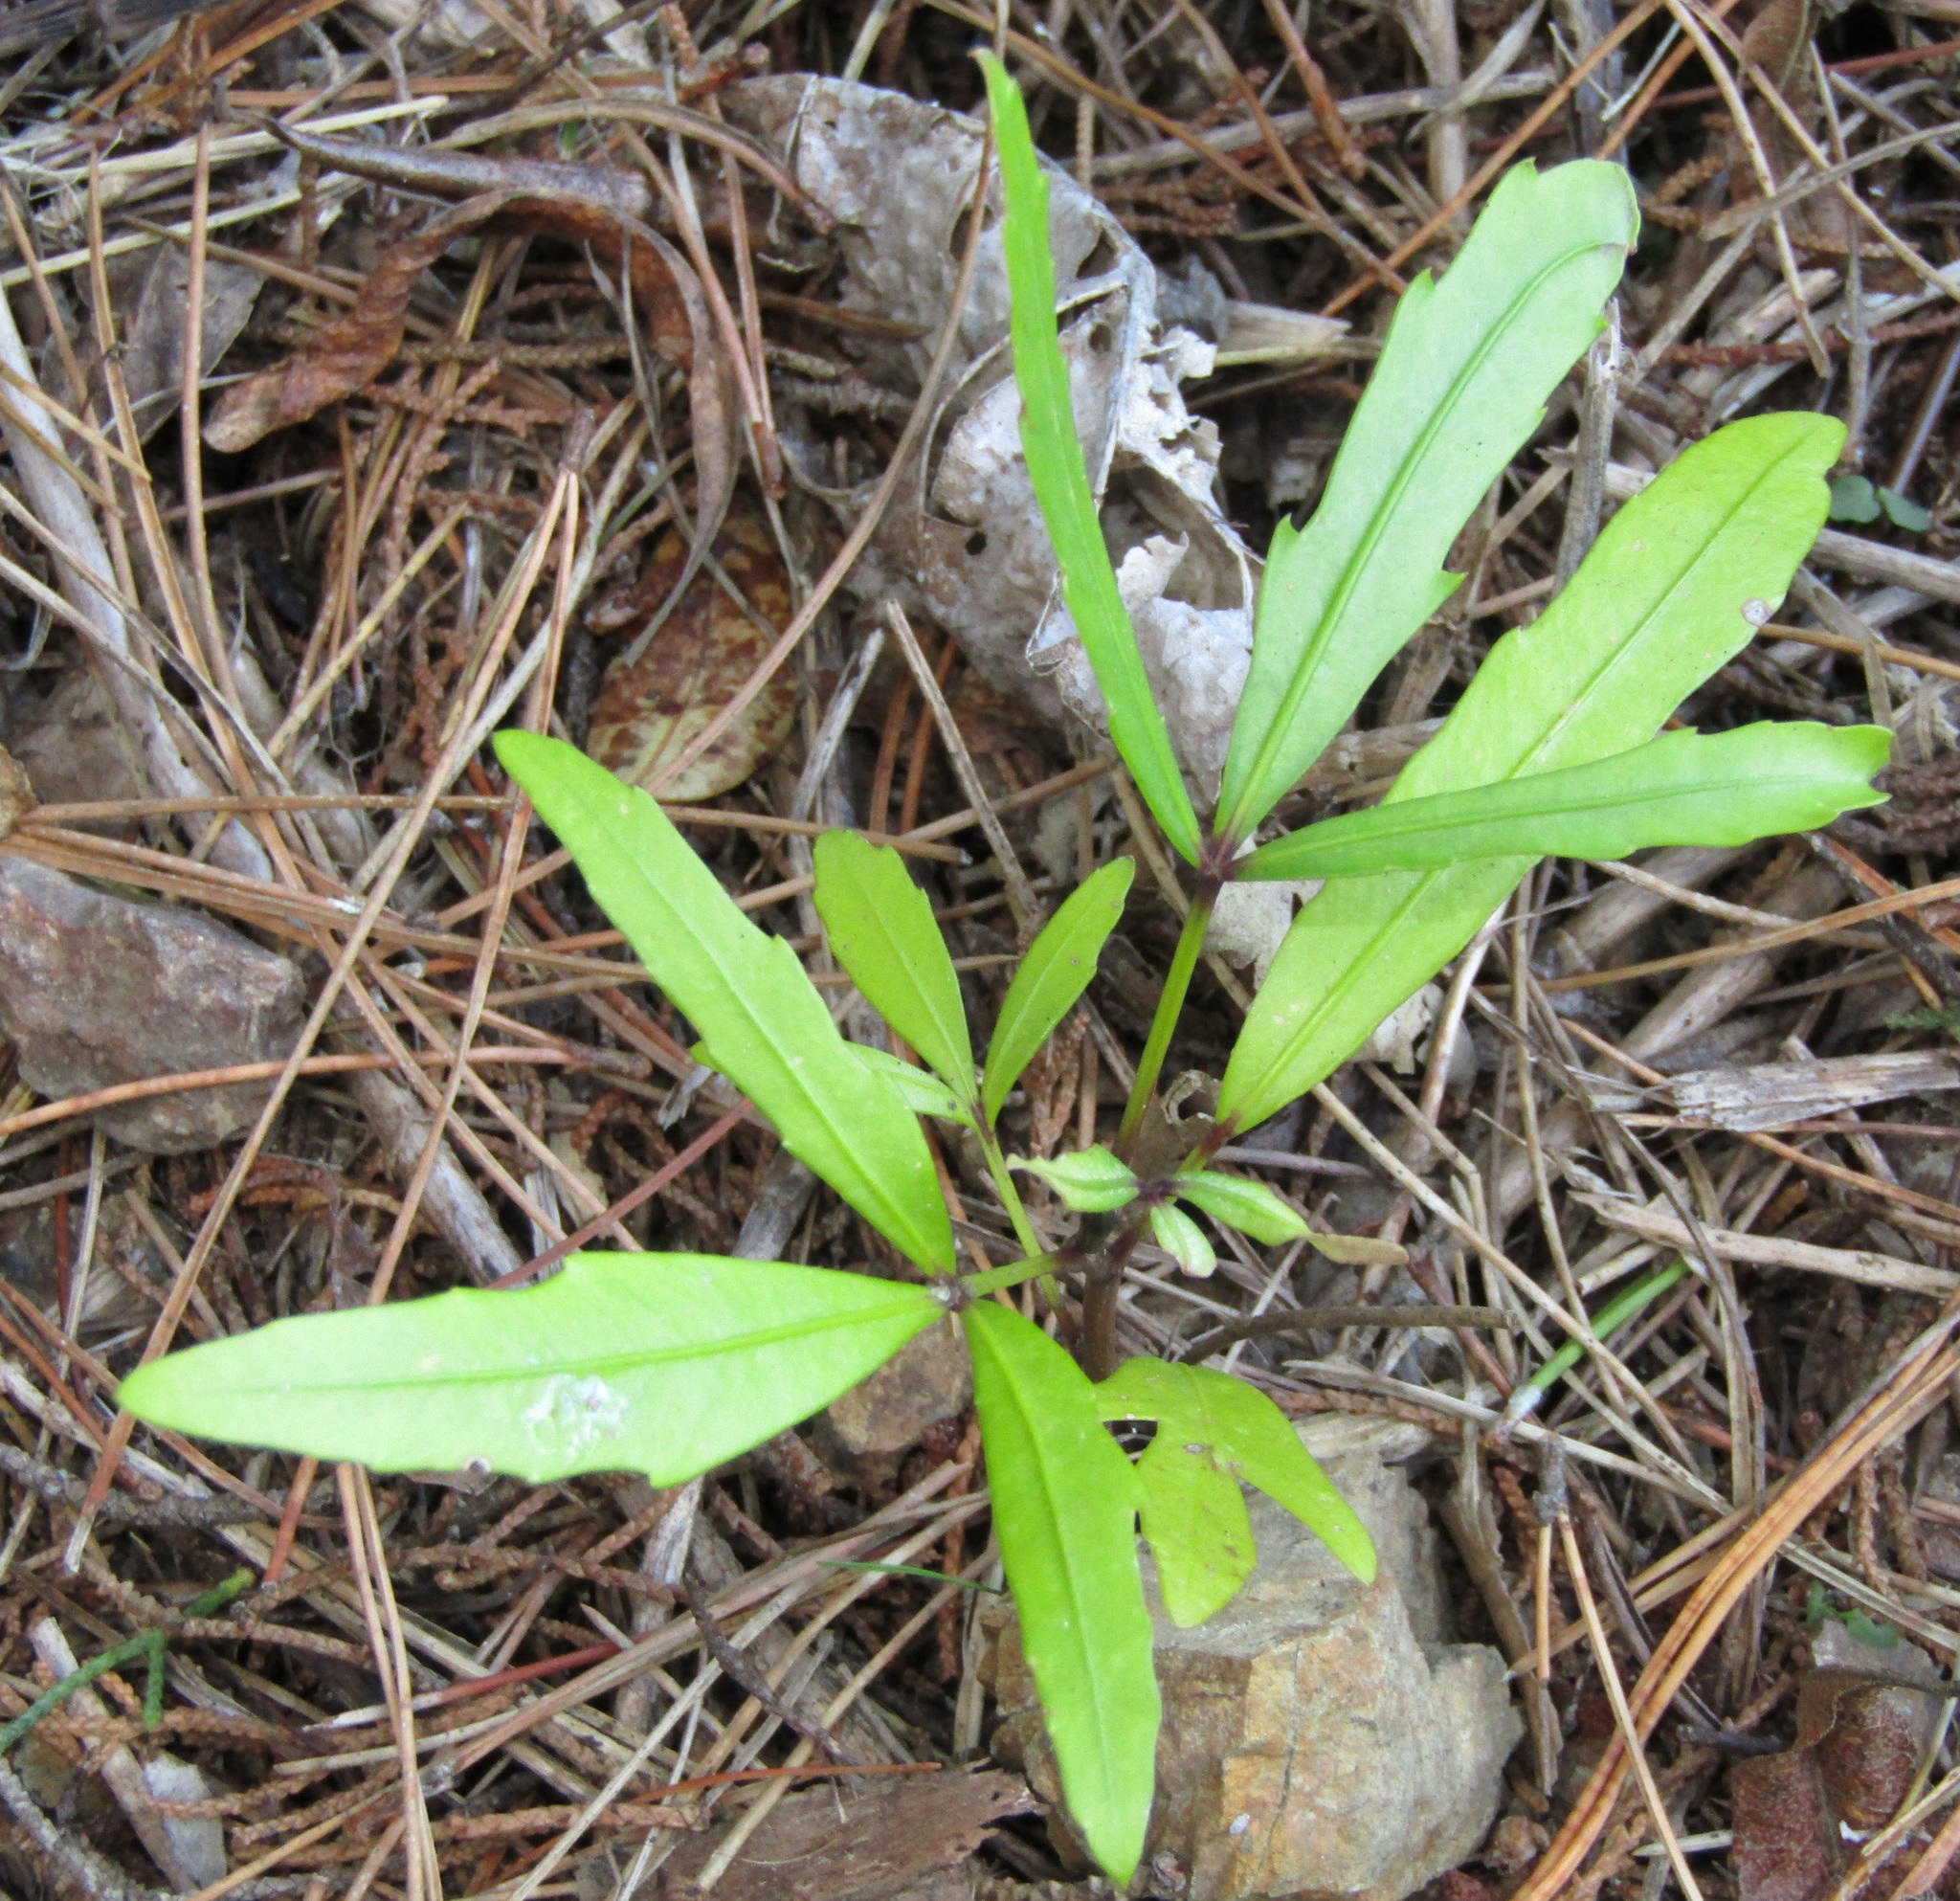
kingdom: Plantae
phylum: Tracheophyta
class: Magnoliopsida
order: Apiales
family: Araliaceae
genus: Pseudopanax
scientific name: Pseudopanax
